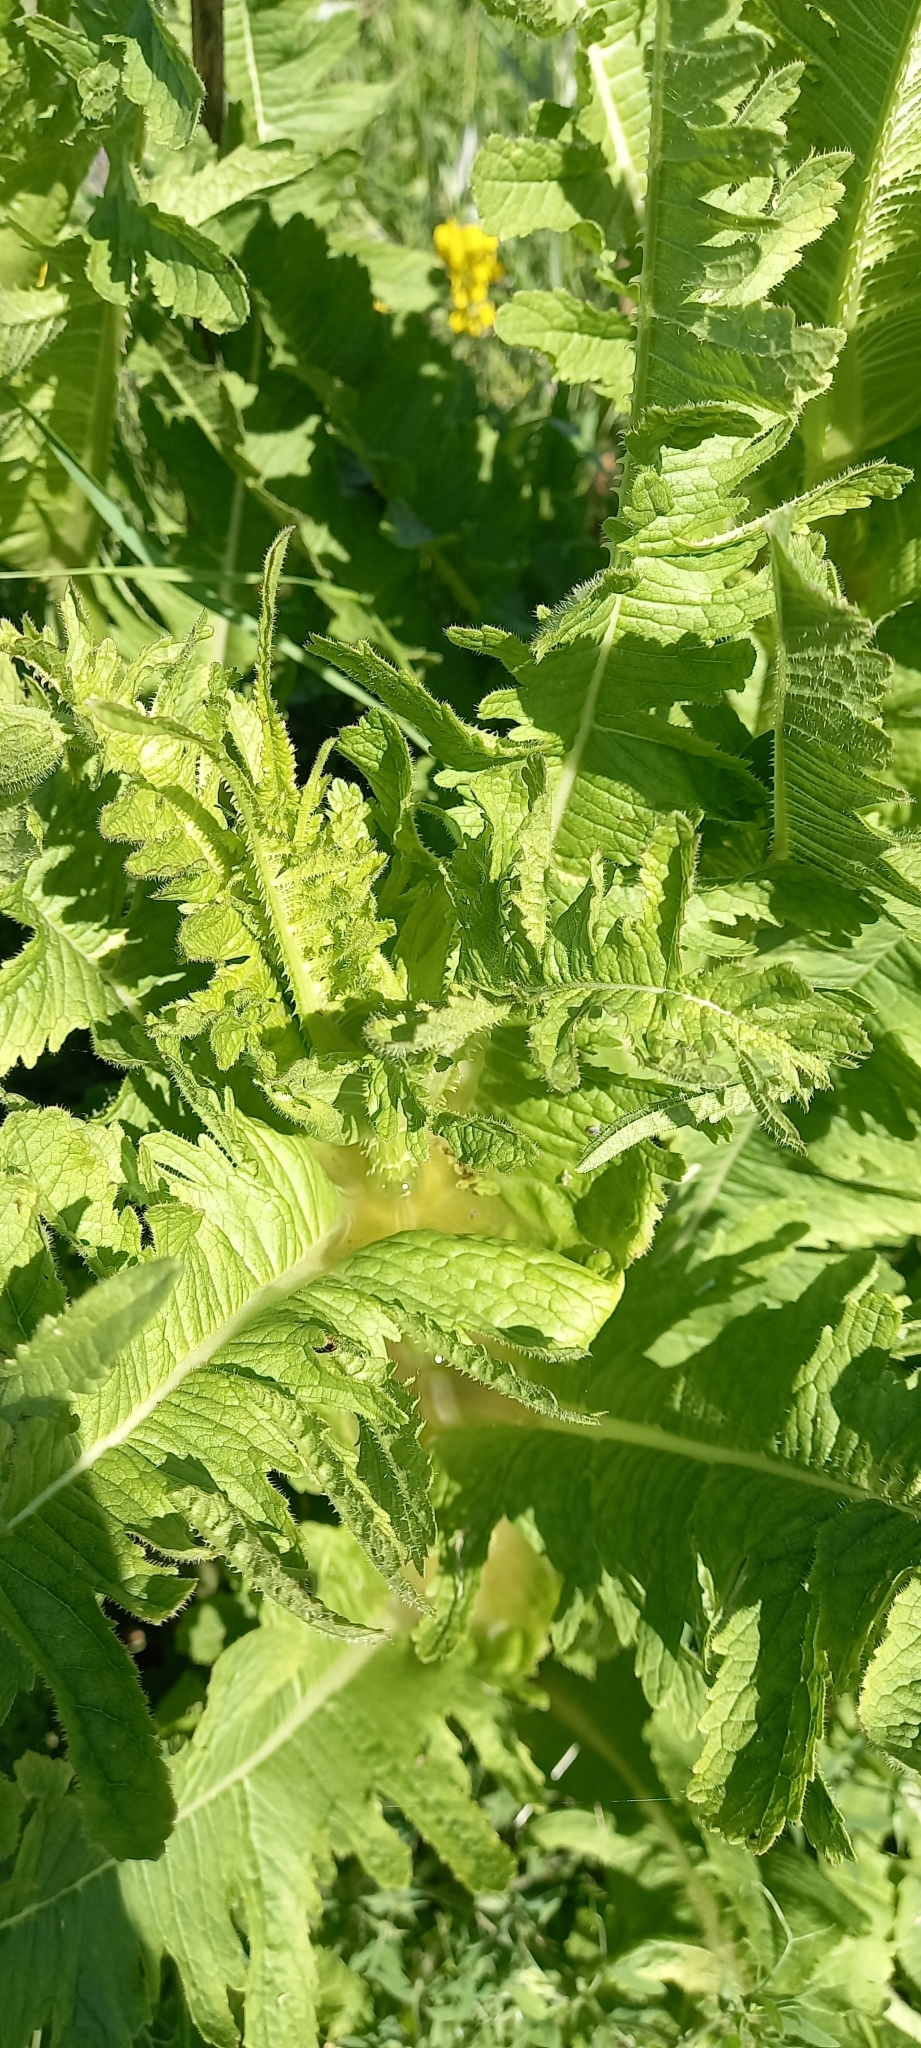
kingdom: Plantae
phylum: Tracheophyta
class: Magnoliopsida
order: Dipsacales
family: Caprifoliaceae
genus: Dipsacus
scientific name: Dipsacus laciniatus
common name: Cut-leaved teasel
